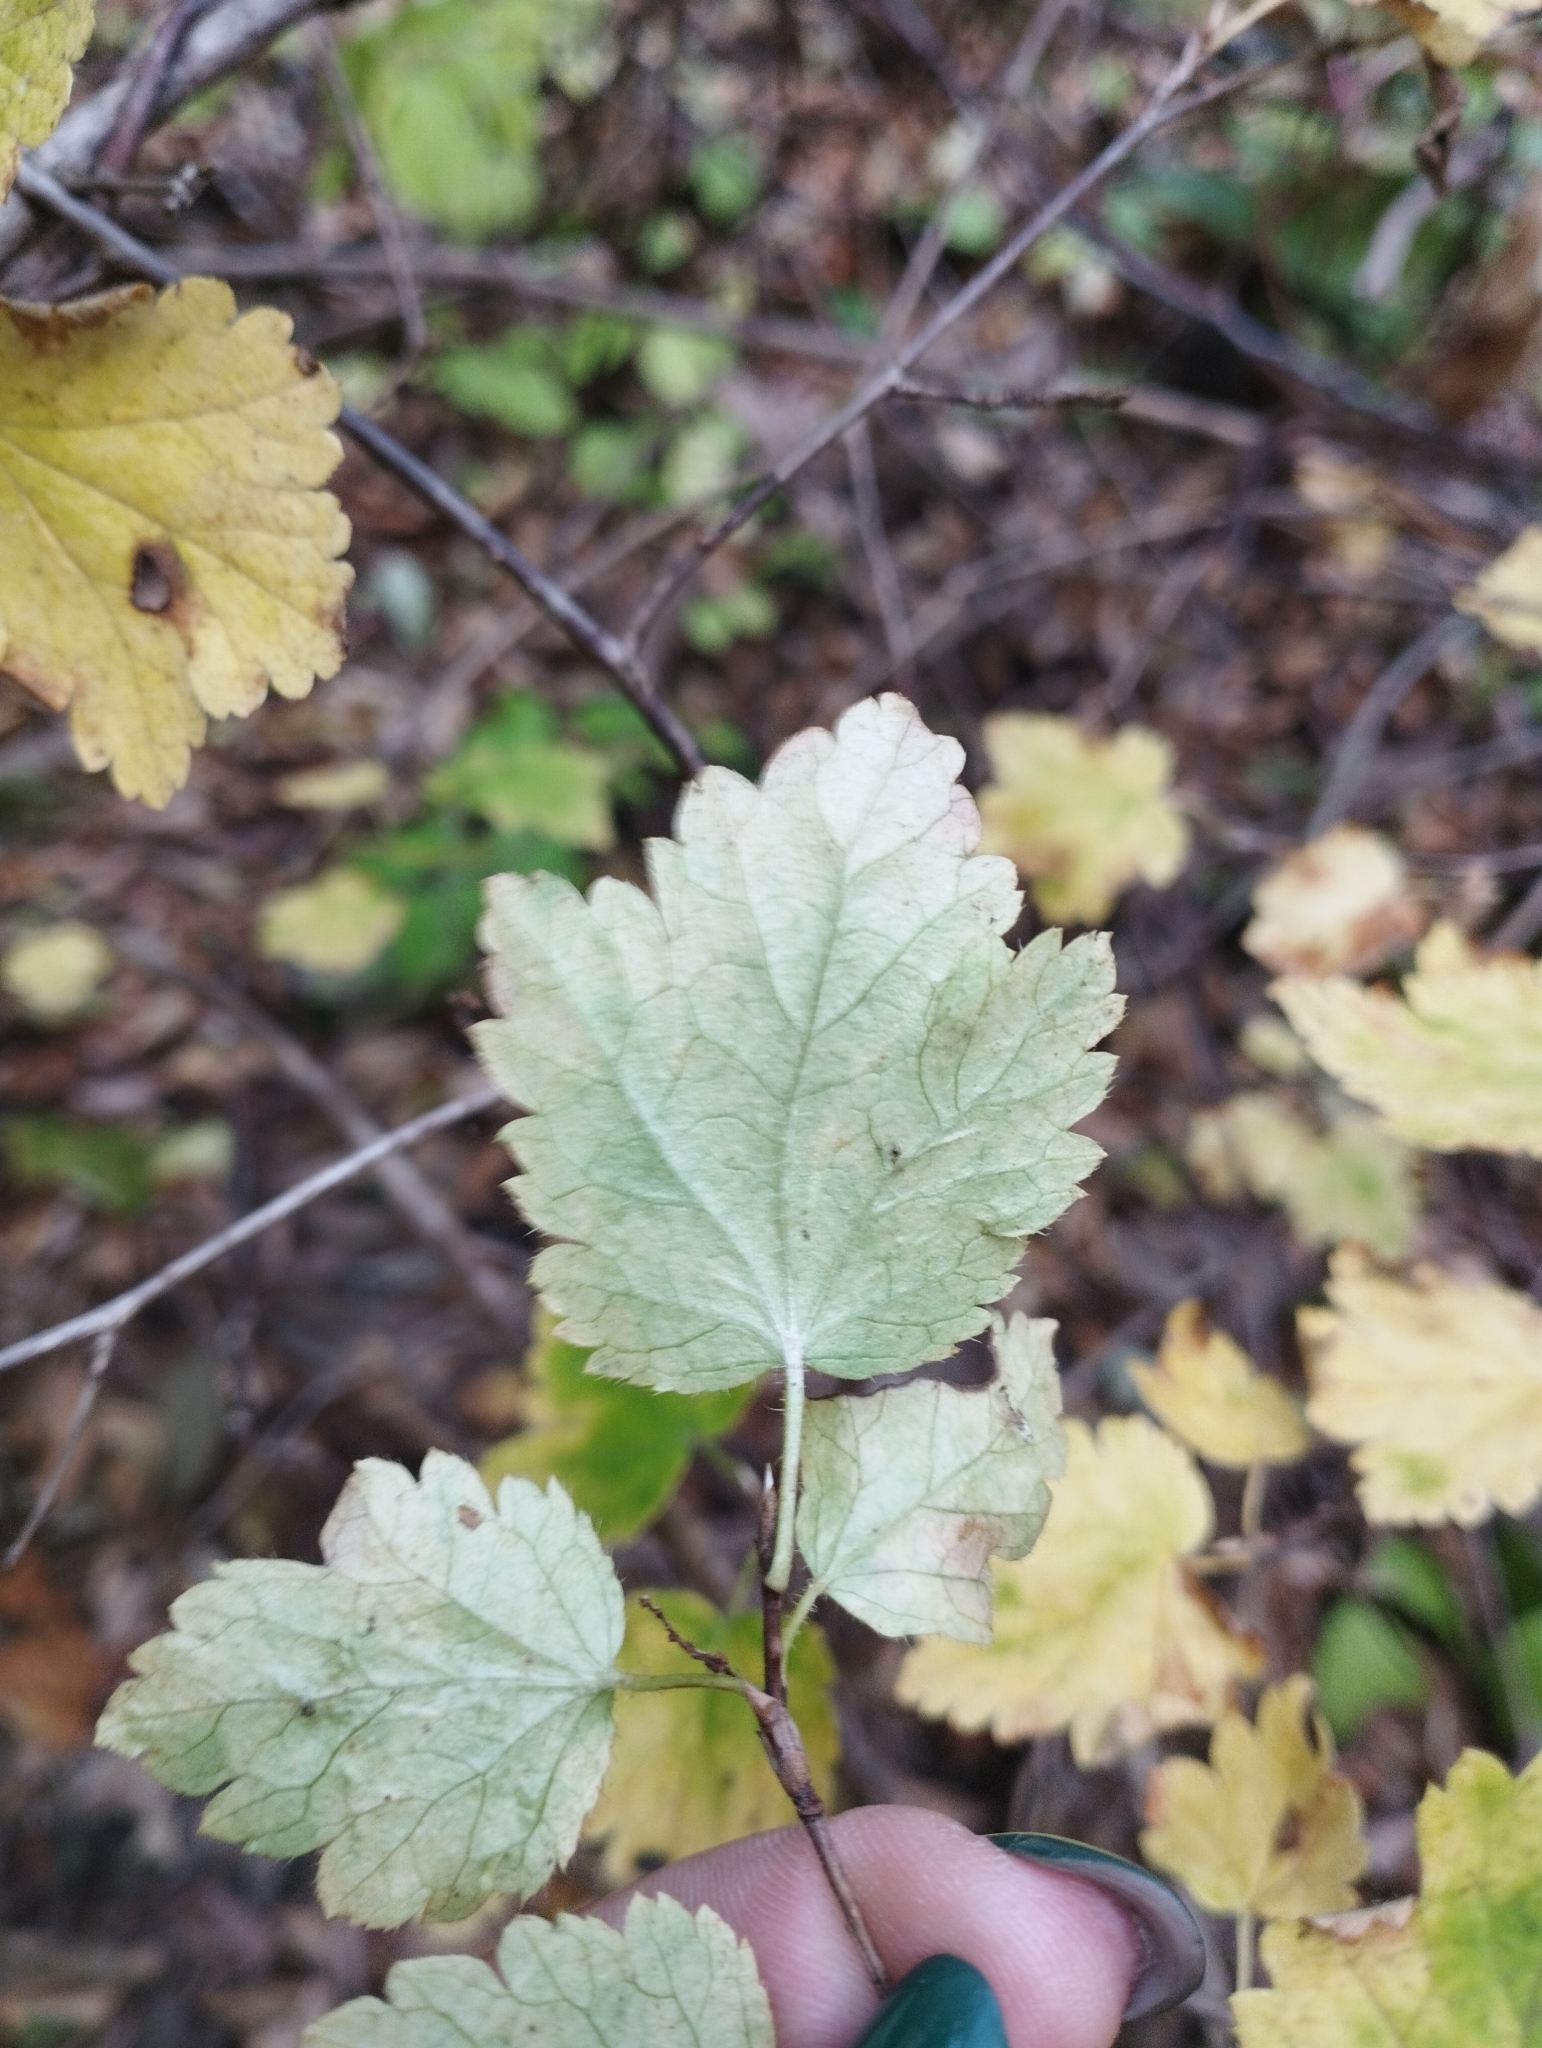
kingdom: Plantae
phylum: Tracheophyta
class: Magnoliopsida
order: Saxifragales
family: Grossulariaceae
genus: Ribes
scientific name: Ribes maximoviczianum
